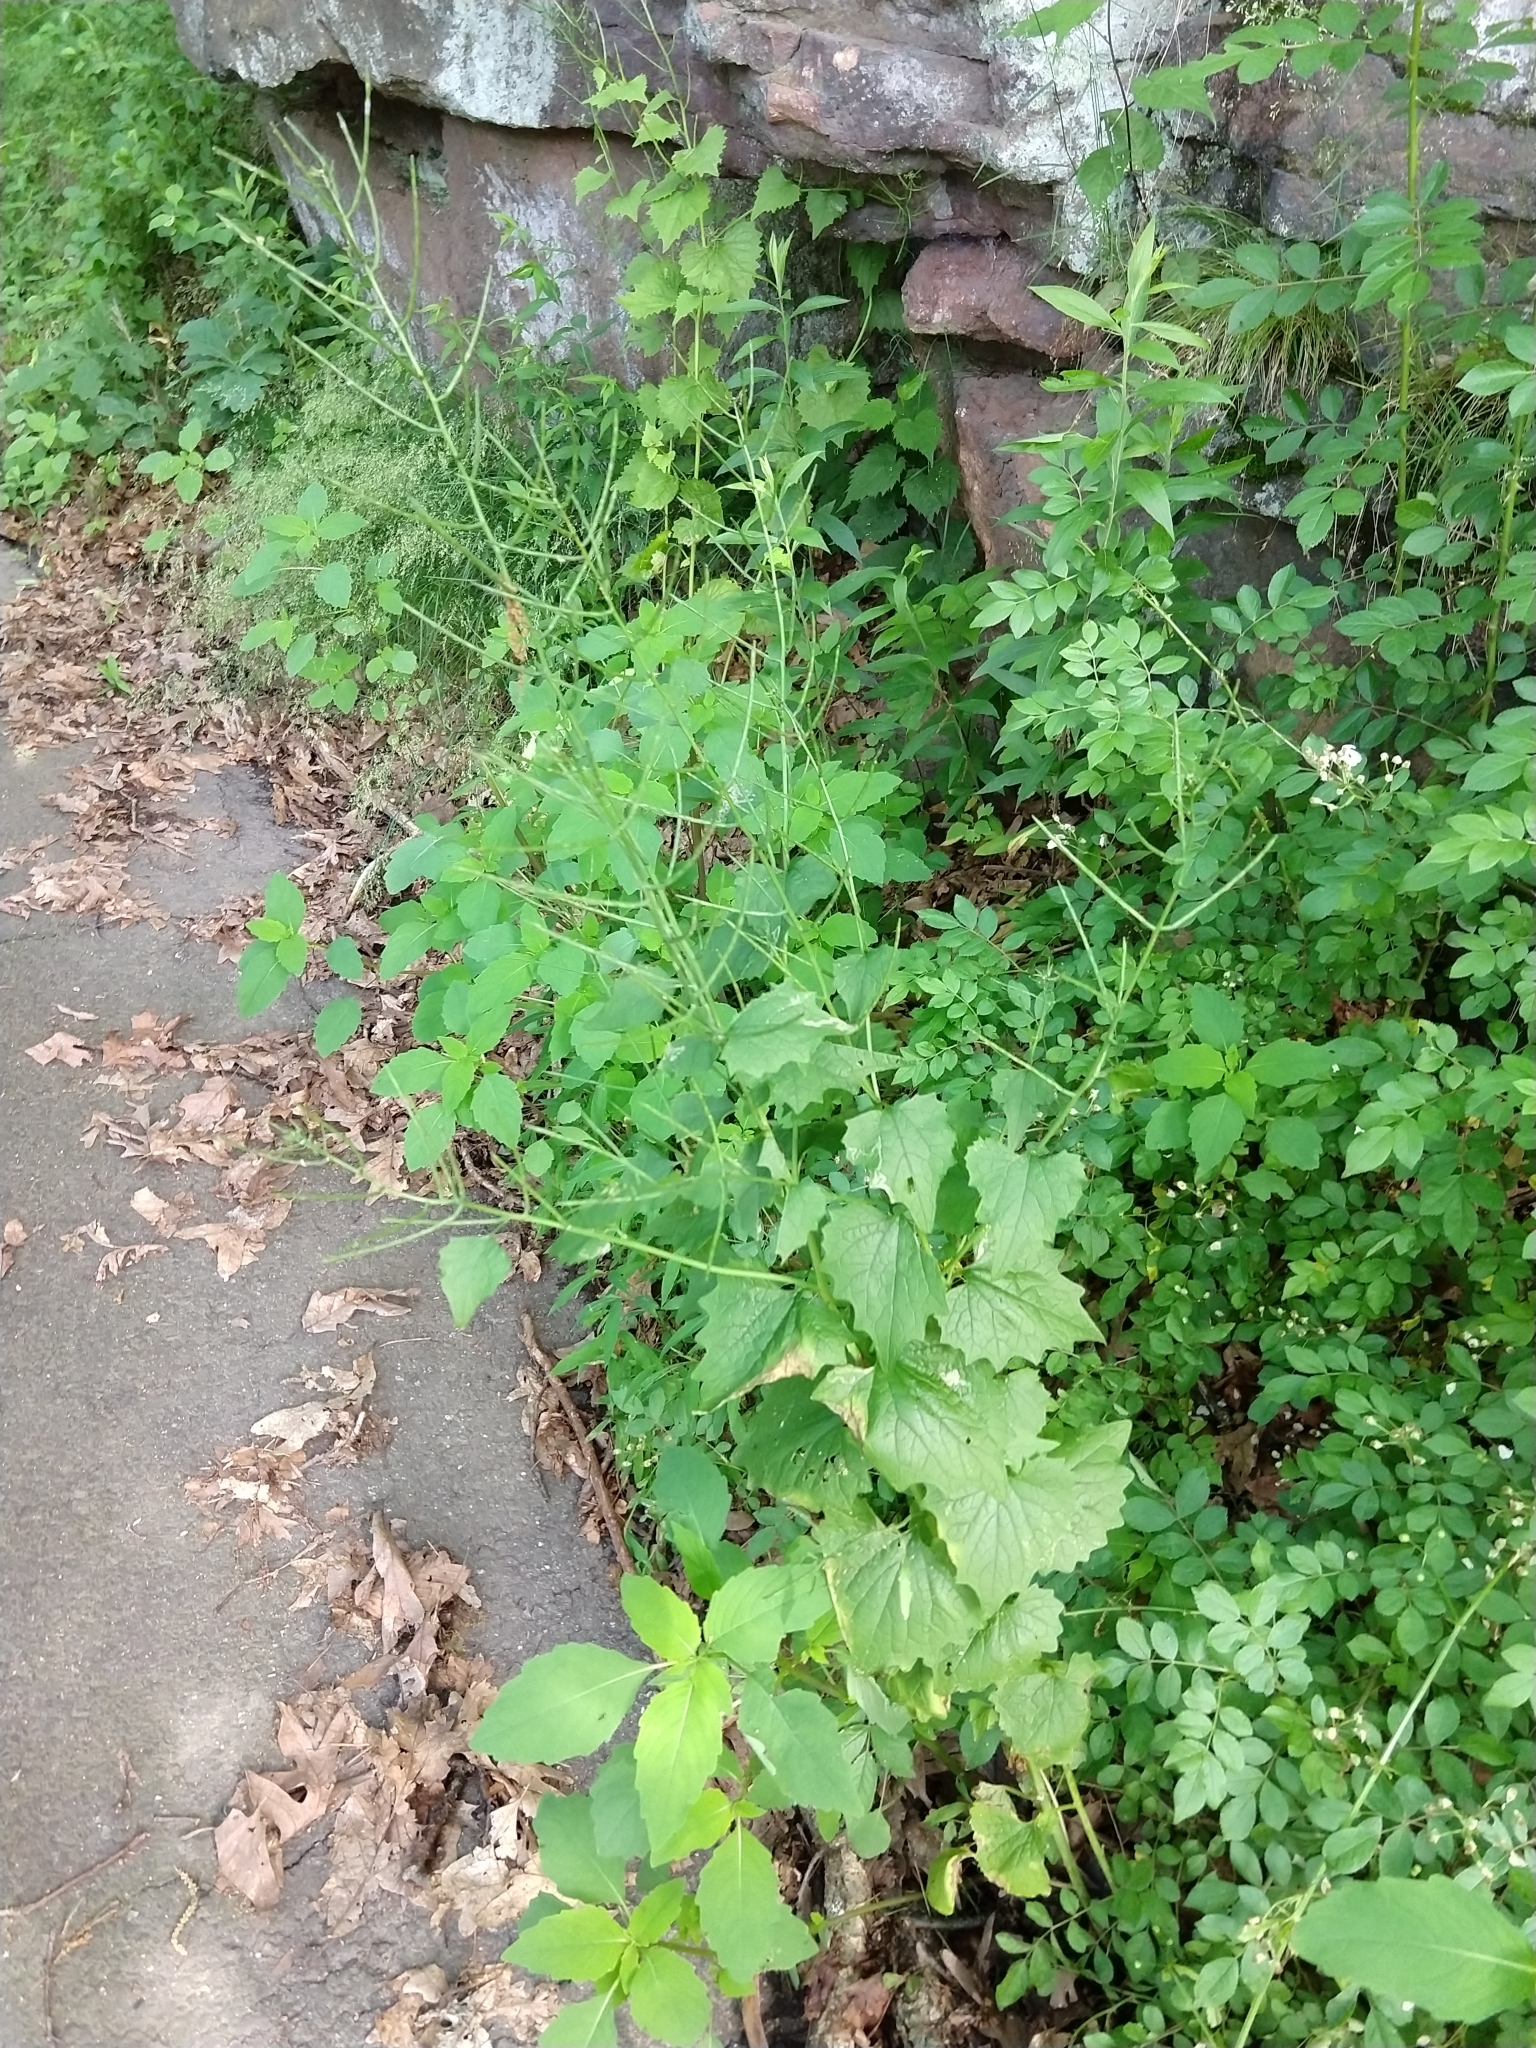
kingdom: Plantae
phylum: Tracheophyta
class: Magnoliopsida
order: Brassicales
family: Brassicaceae
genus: Alliaria
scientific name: Alliaria petiolata
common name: Garlic mustard
